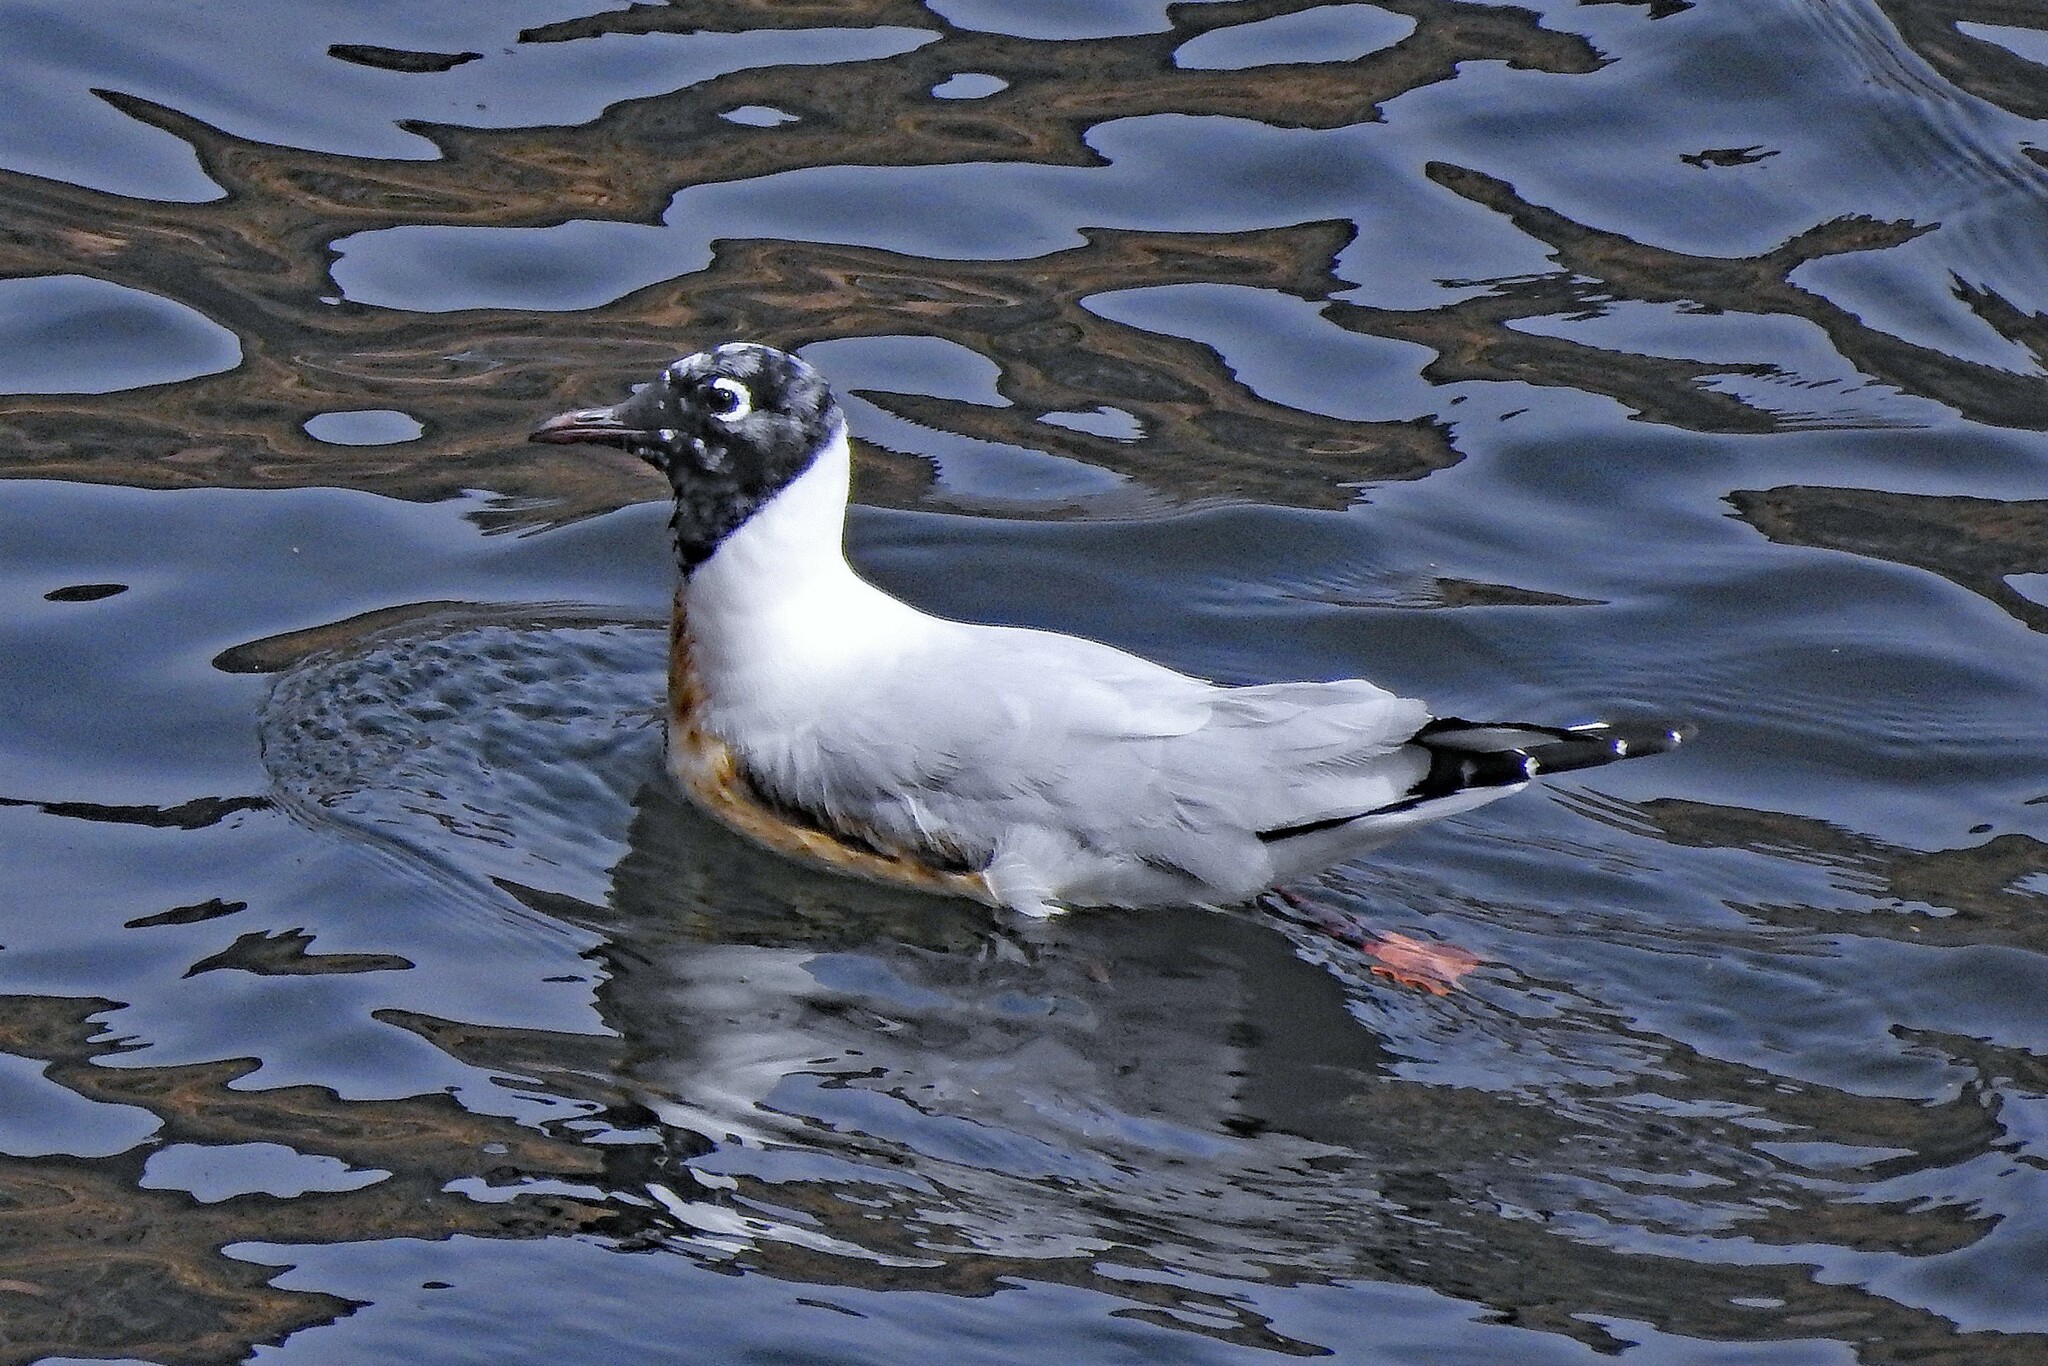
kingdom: Animalia
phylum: Chordata
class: Aves
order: Charadriiformes
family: Laridae
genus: Chroicocephalus
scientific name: Chroicocephalus serranus
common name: Andean gull
